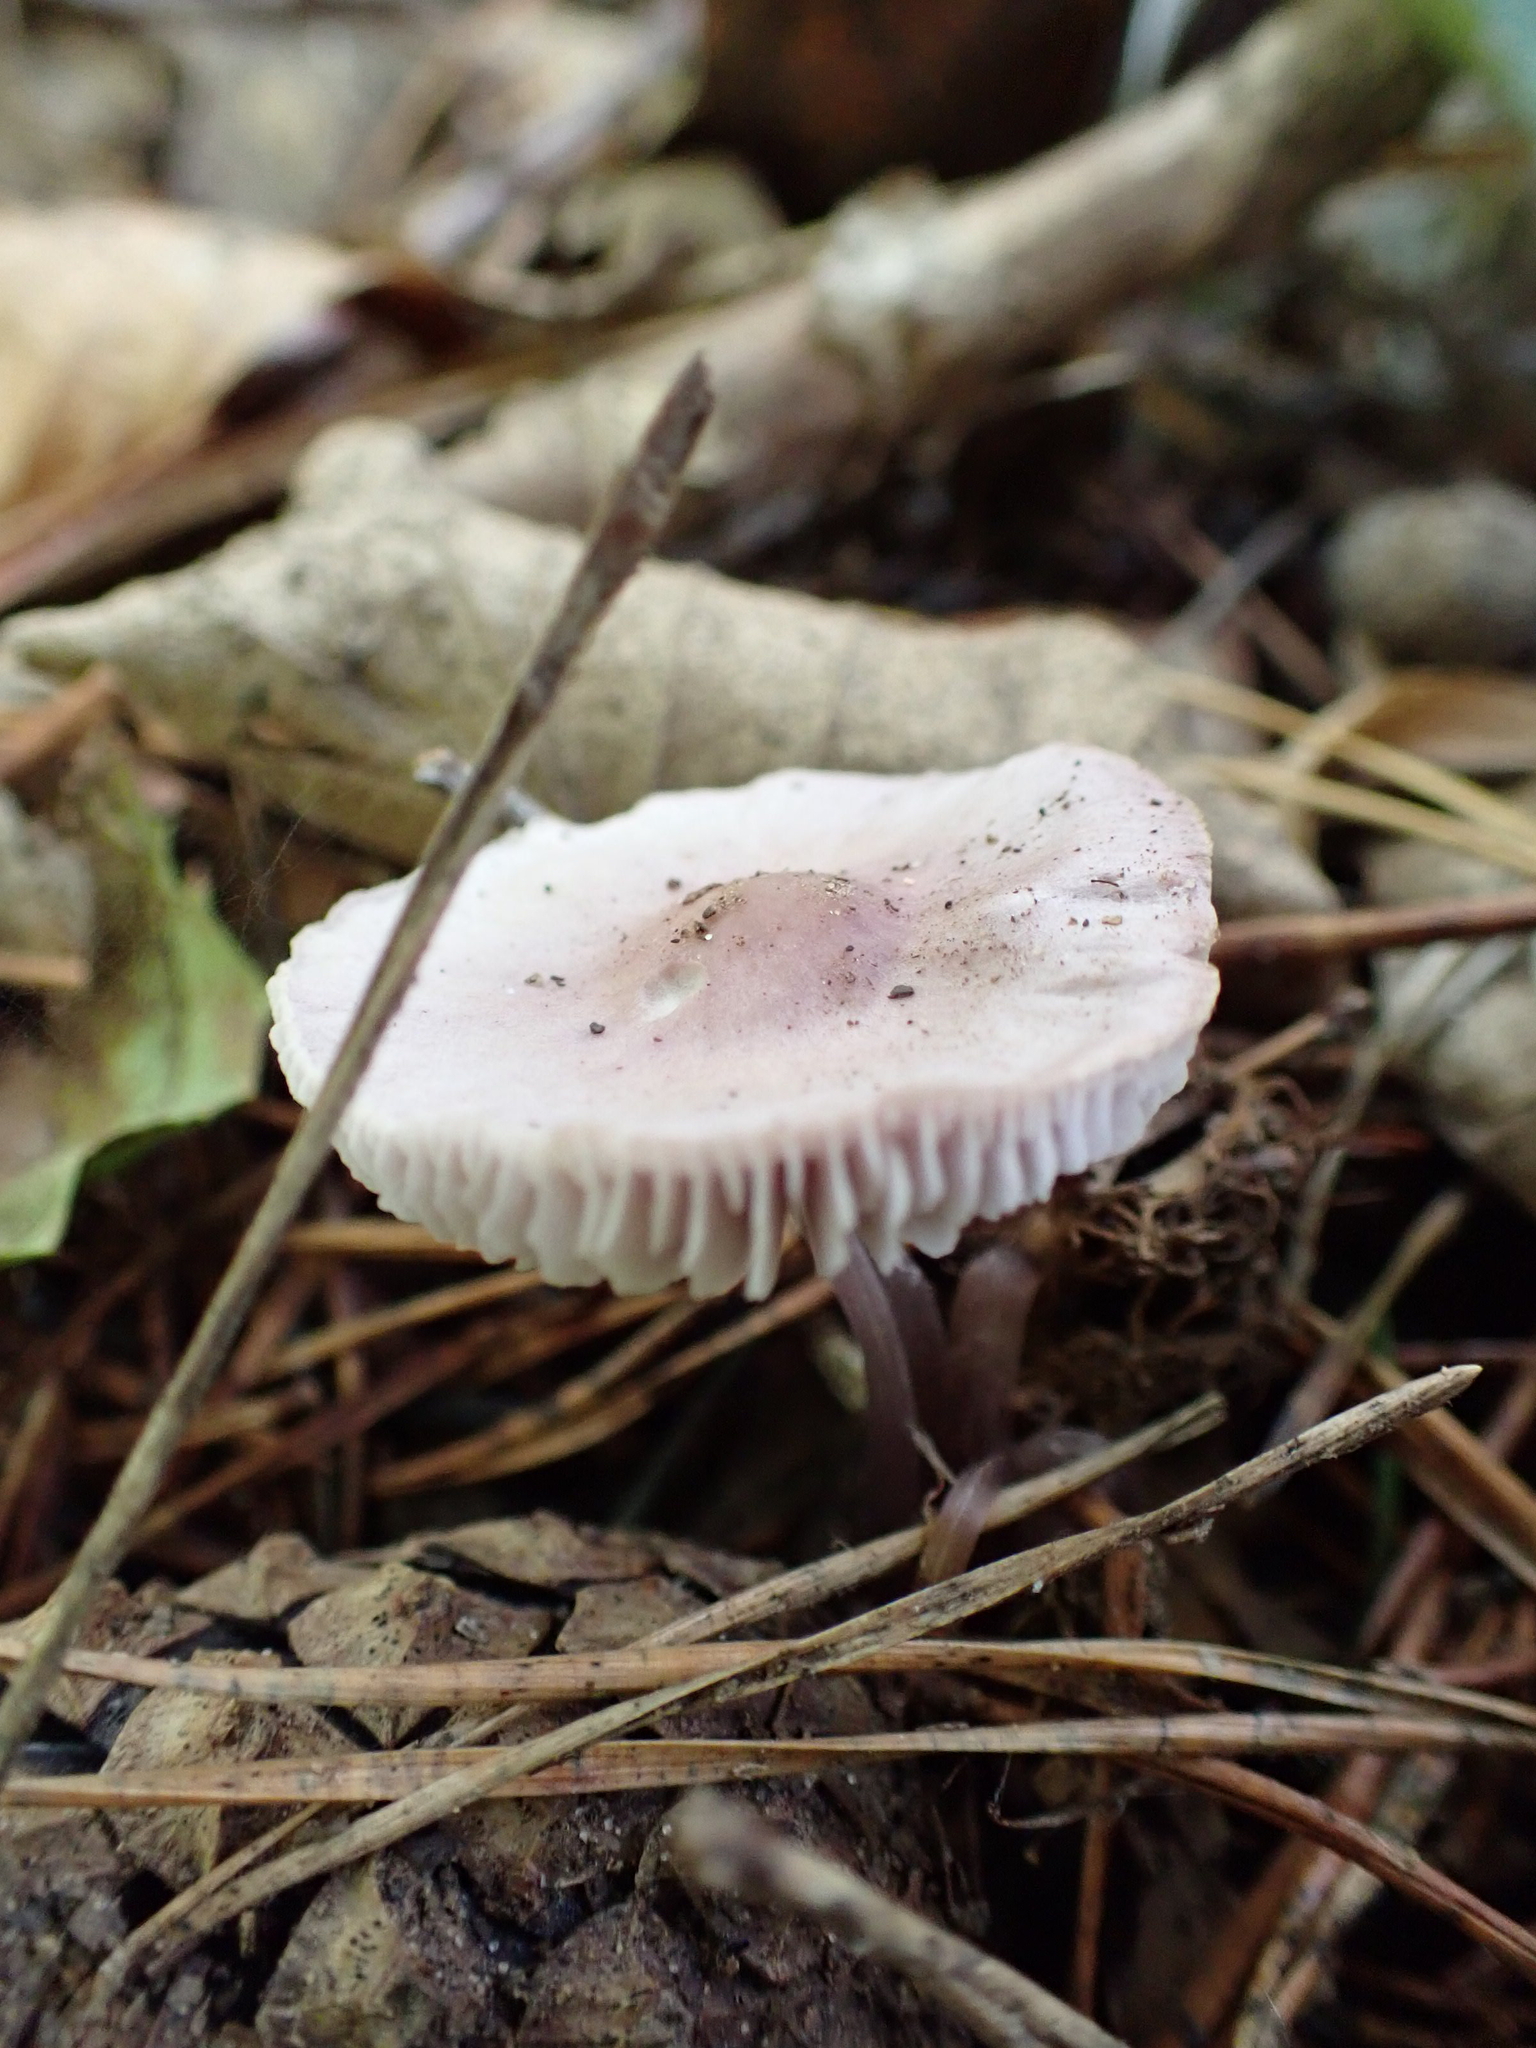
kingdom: Fungi
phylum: Basidiomycota
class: Agaricomycetes
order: Agaricales
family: Mycenaceae
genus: Mycena
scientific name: Mycena pura
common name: Lilac bonnet
